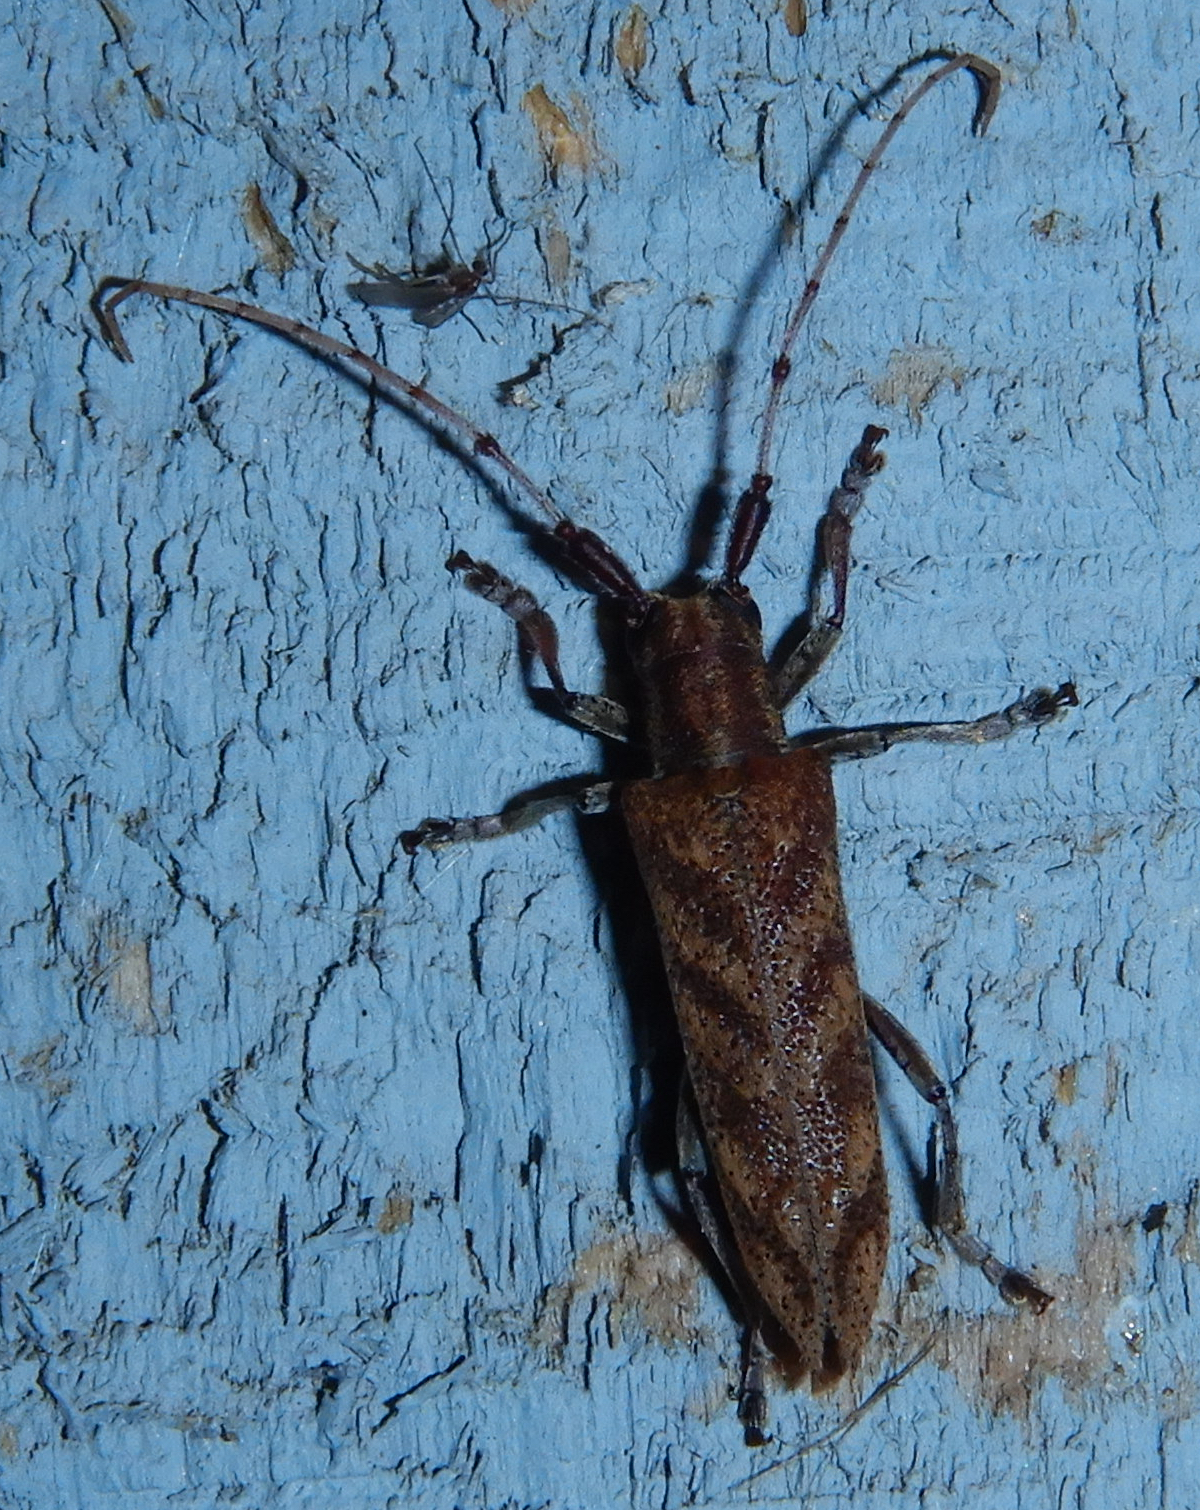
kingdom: Animalia
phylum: Arthropoda
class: Insecta
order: Coleoptera
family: Cerambycidae
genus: Saperda
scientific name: Saperda obliqua
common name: Alder borer
